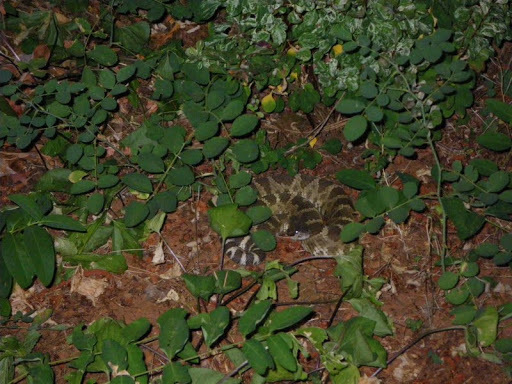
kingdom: Animalia
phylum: Chordata
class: Squamata
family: Viperidae
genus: Crotalus
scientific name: Crotalus oreganus
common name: Abyssus
